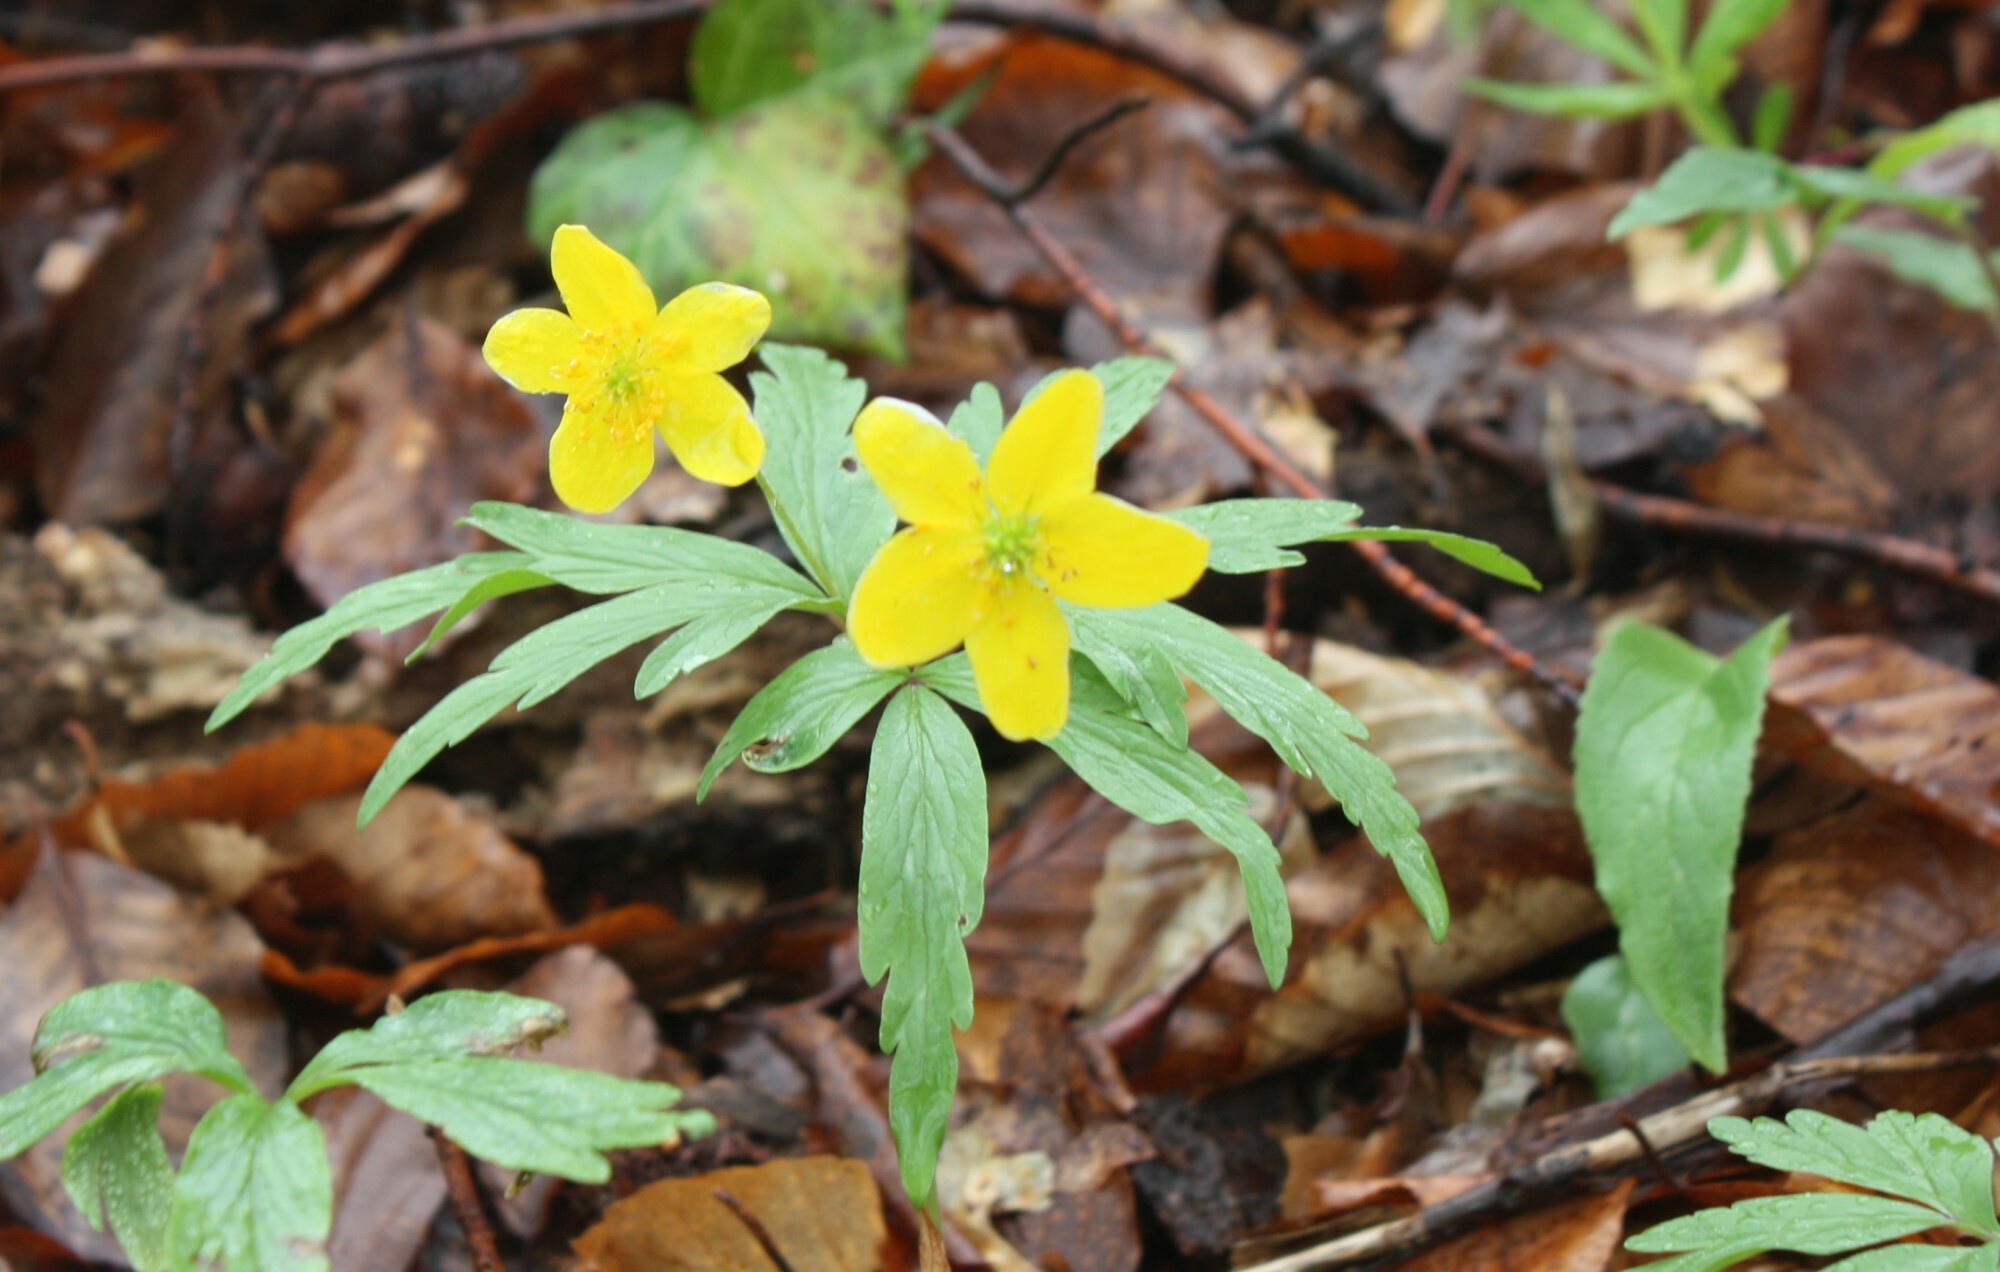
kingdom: Plantae
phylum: Tracheophyta
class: Magnoliopsida
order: Ranunculales
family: Ranunculaceae
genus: Anemone
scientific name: Anemone ranunculoides
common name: Yellow anemone
